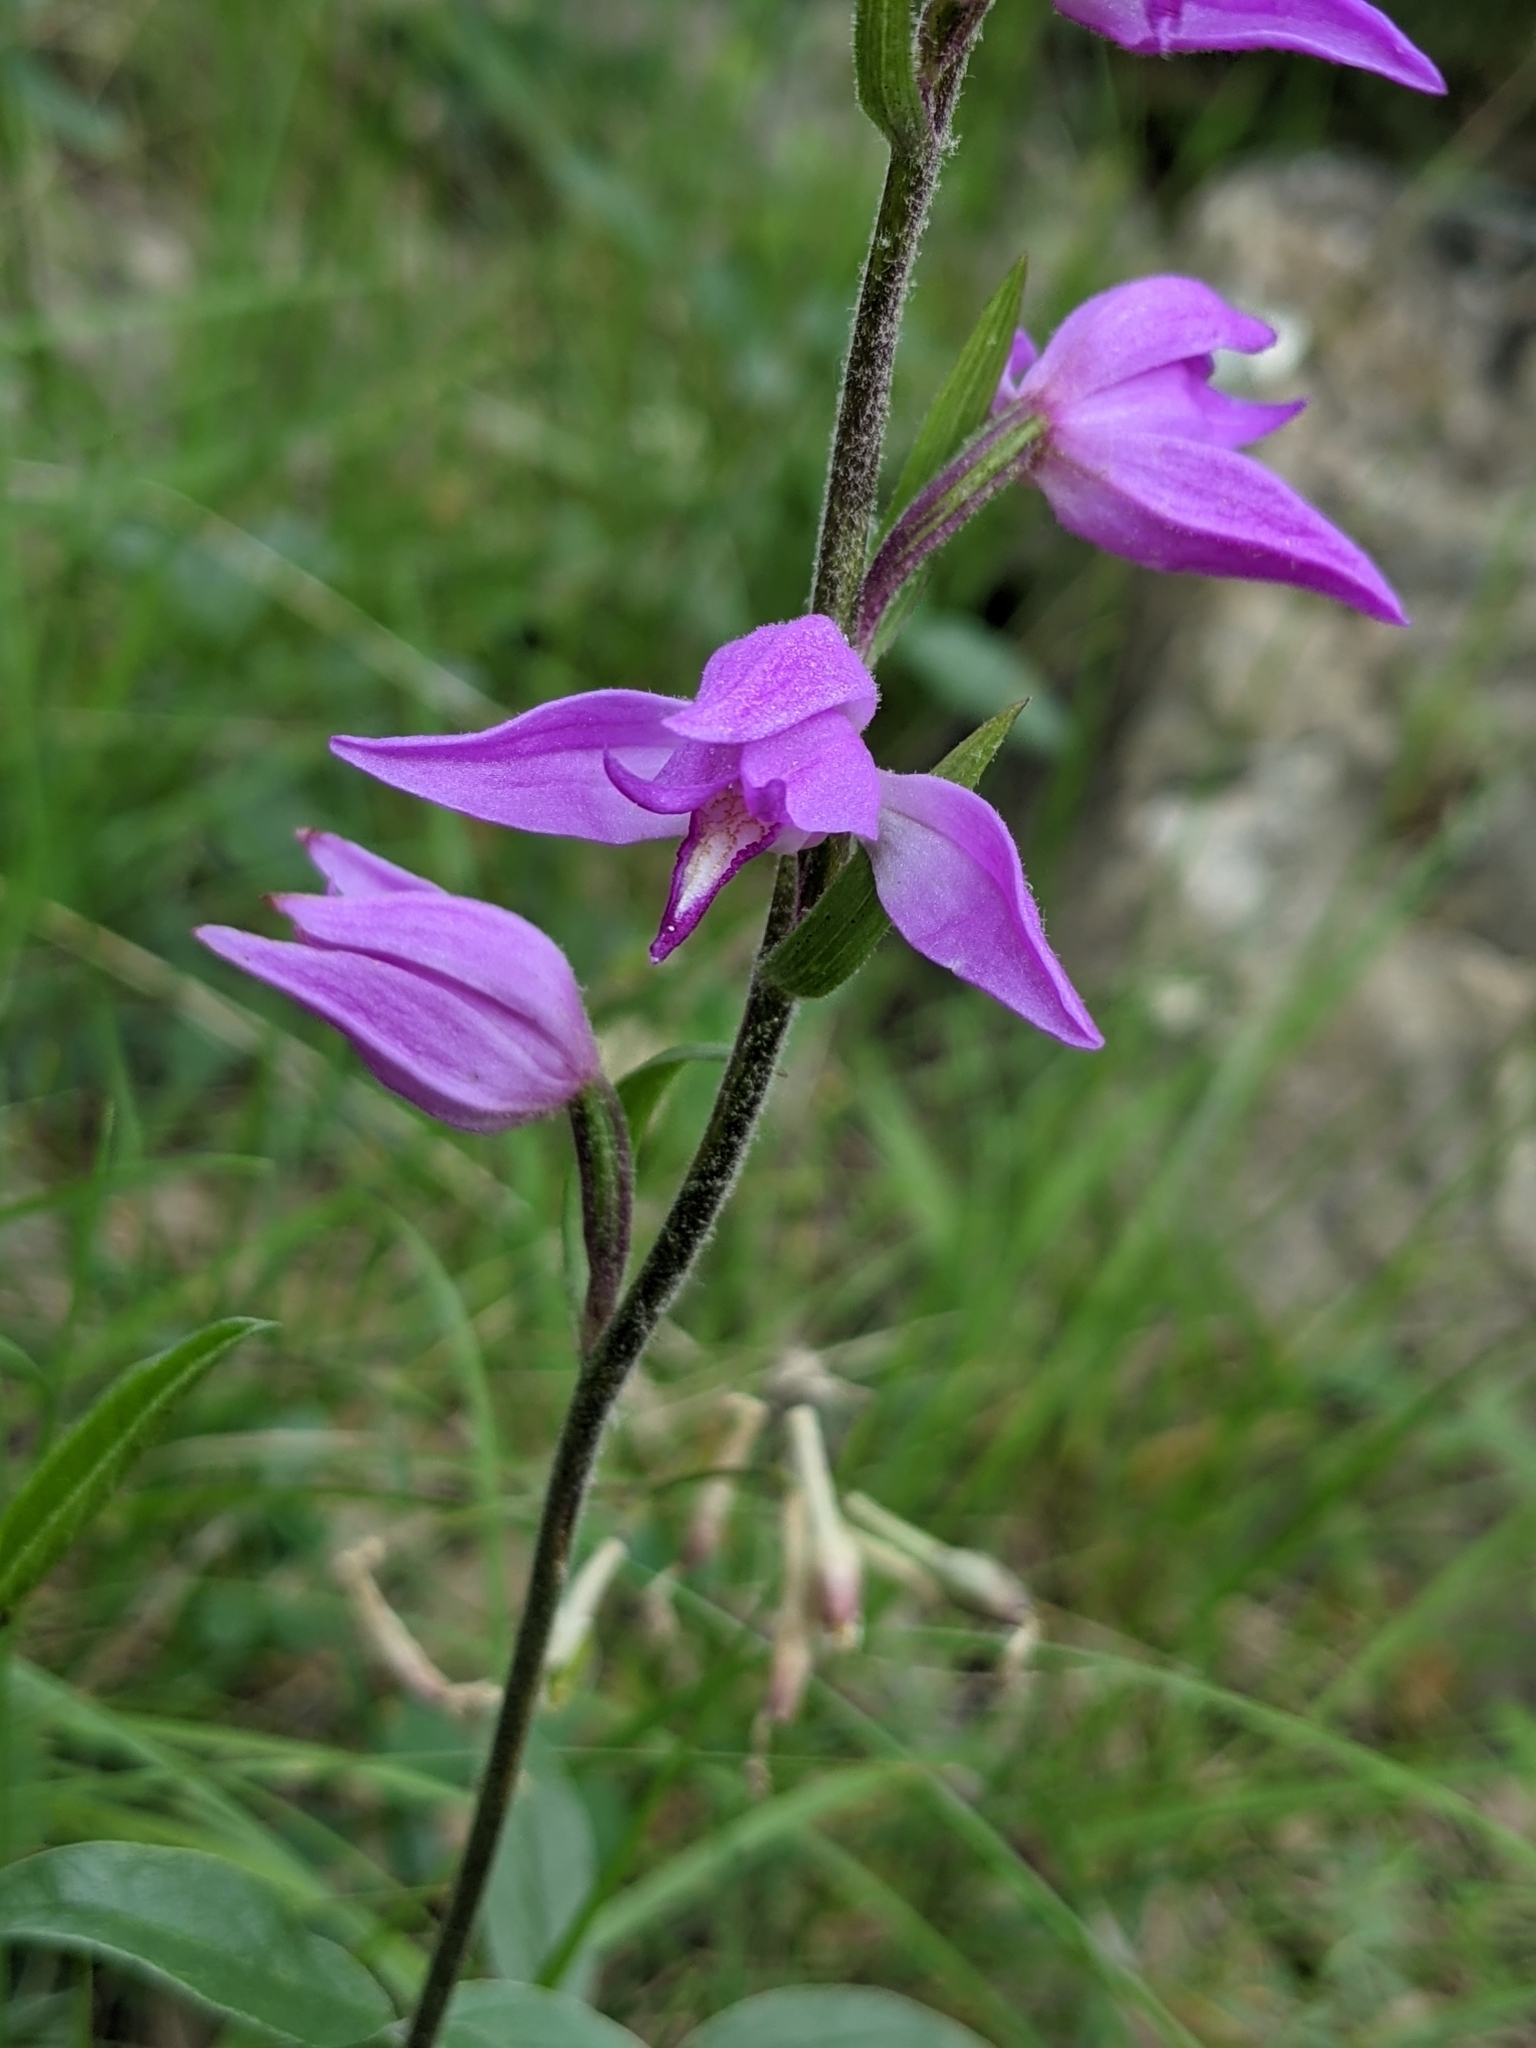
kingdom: Plantae
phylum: Tracheophyta
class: Liliopsida
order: Asparagales
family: Orchidaceae
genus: Cephalanthera
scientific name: Cephalanthera rubra
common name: Red helleborine
